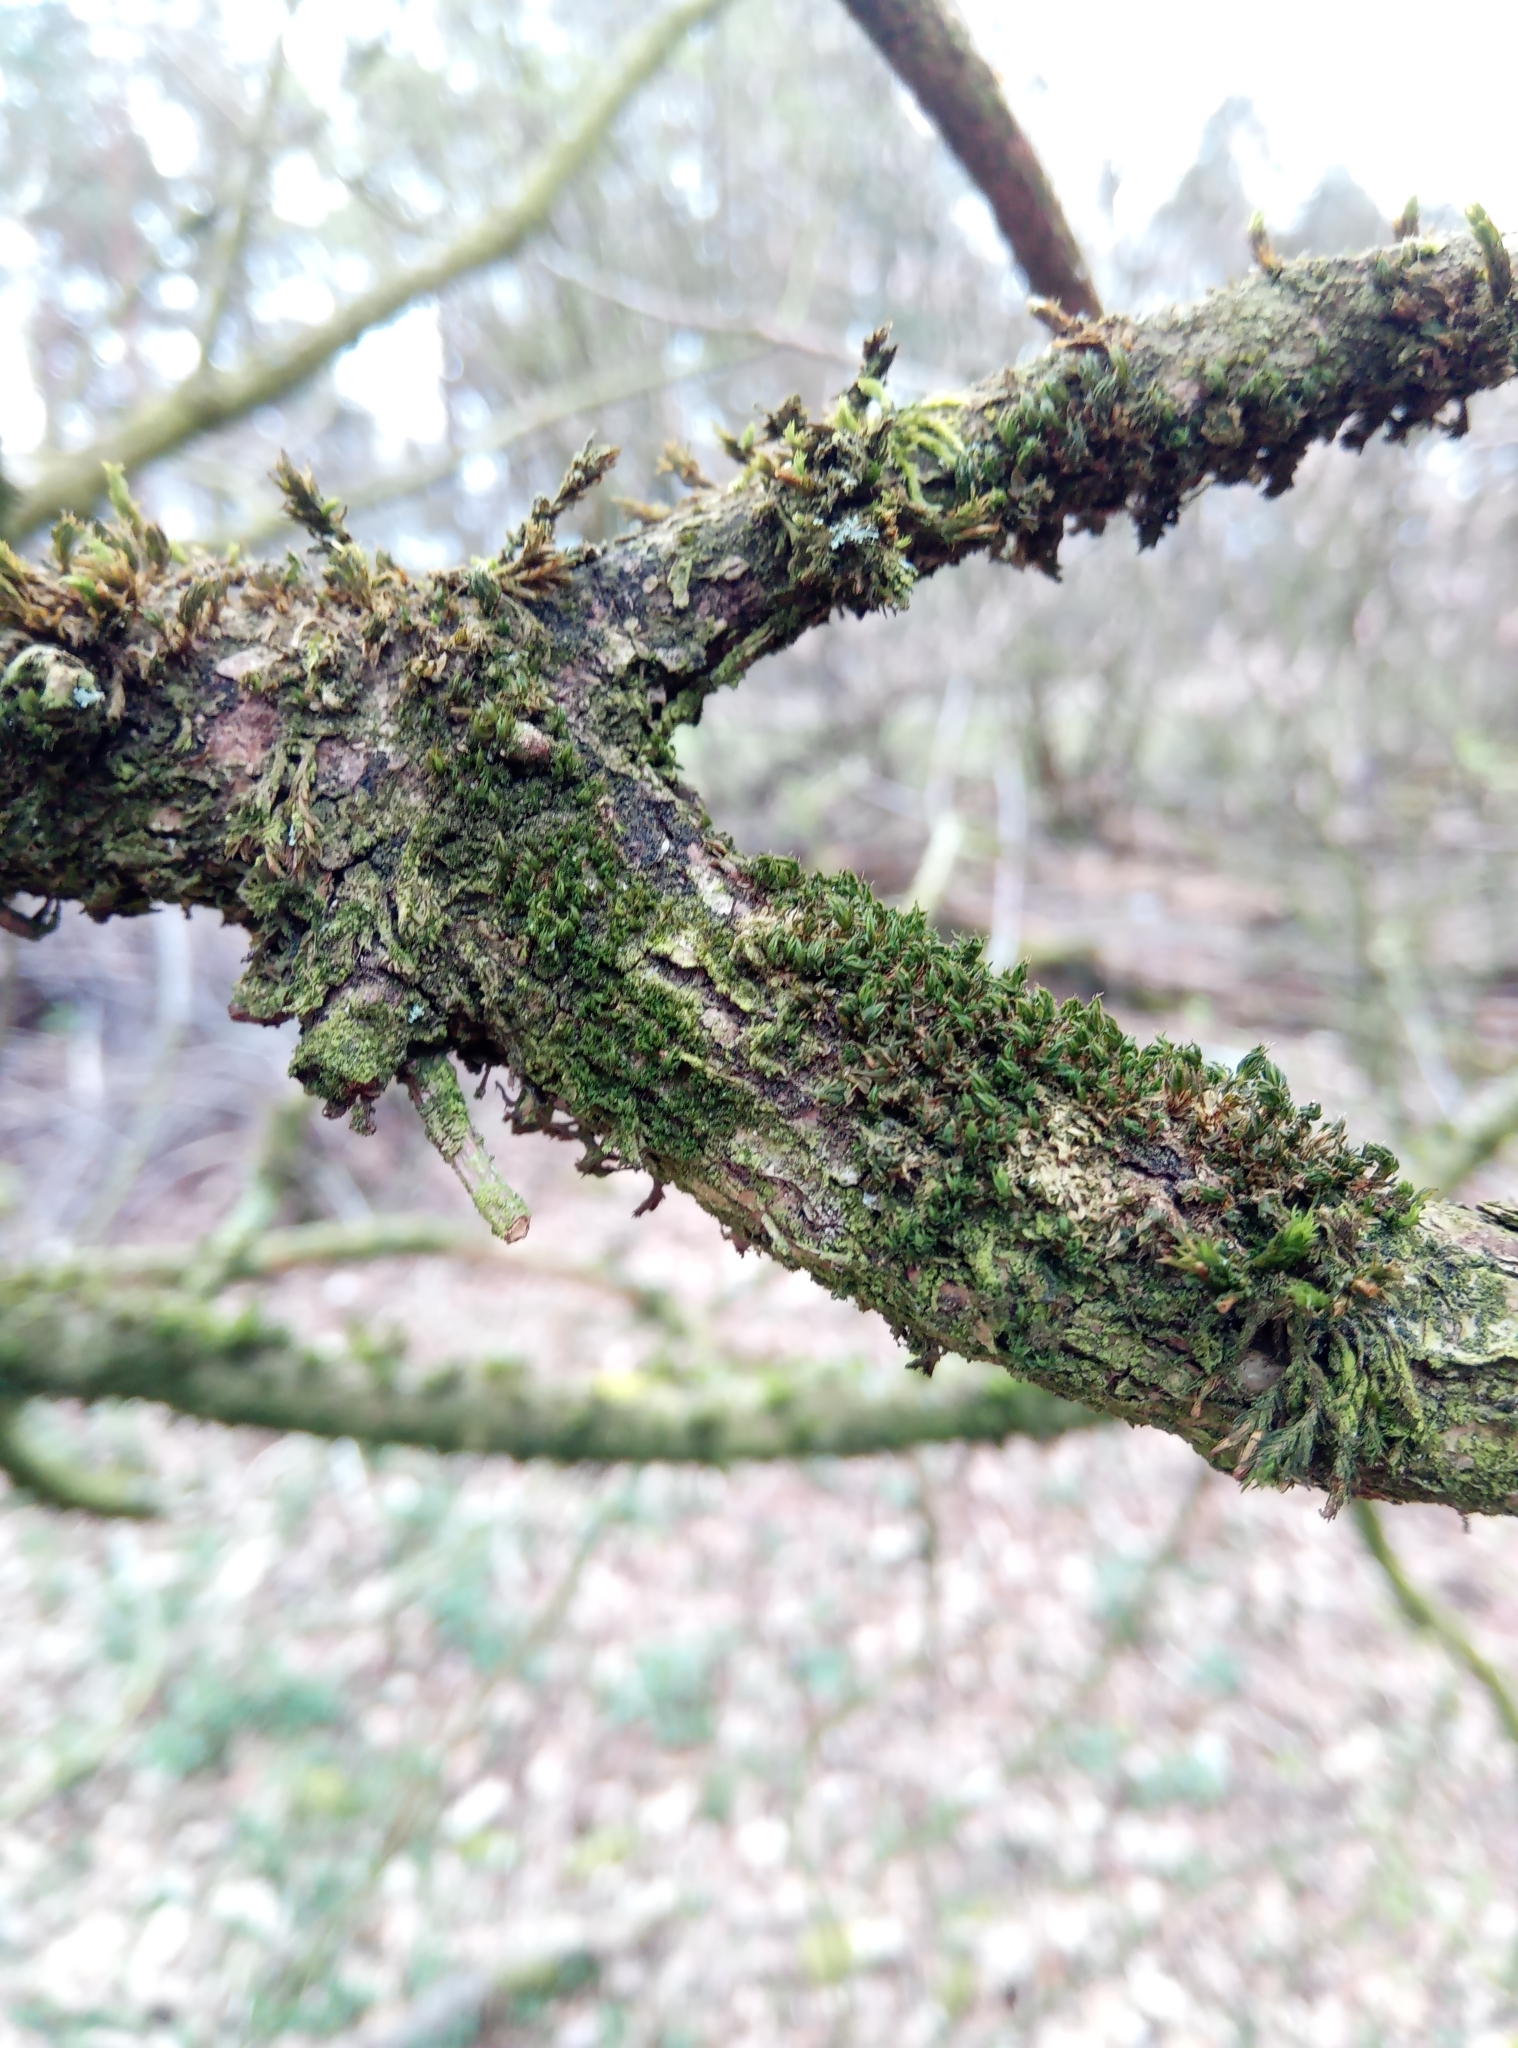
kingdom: Plantae
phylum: Bryophyta
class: Bryopsida
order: Pottiales
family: Pottiaceae
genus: Syntrichia
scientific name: Syntrichia papillosa
